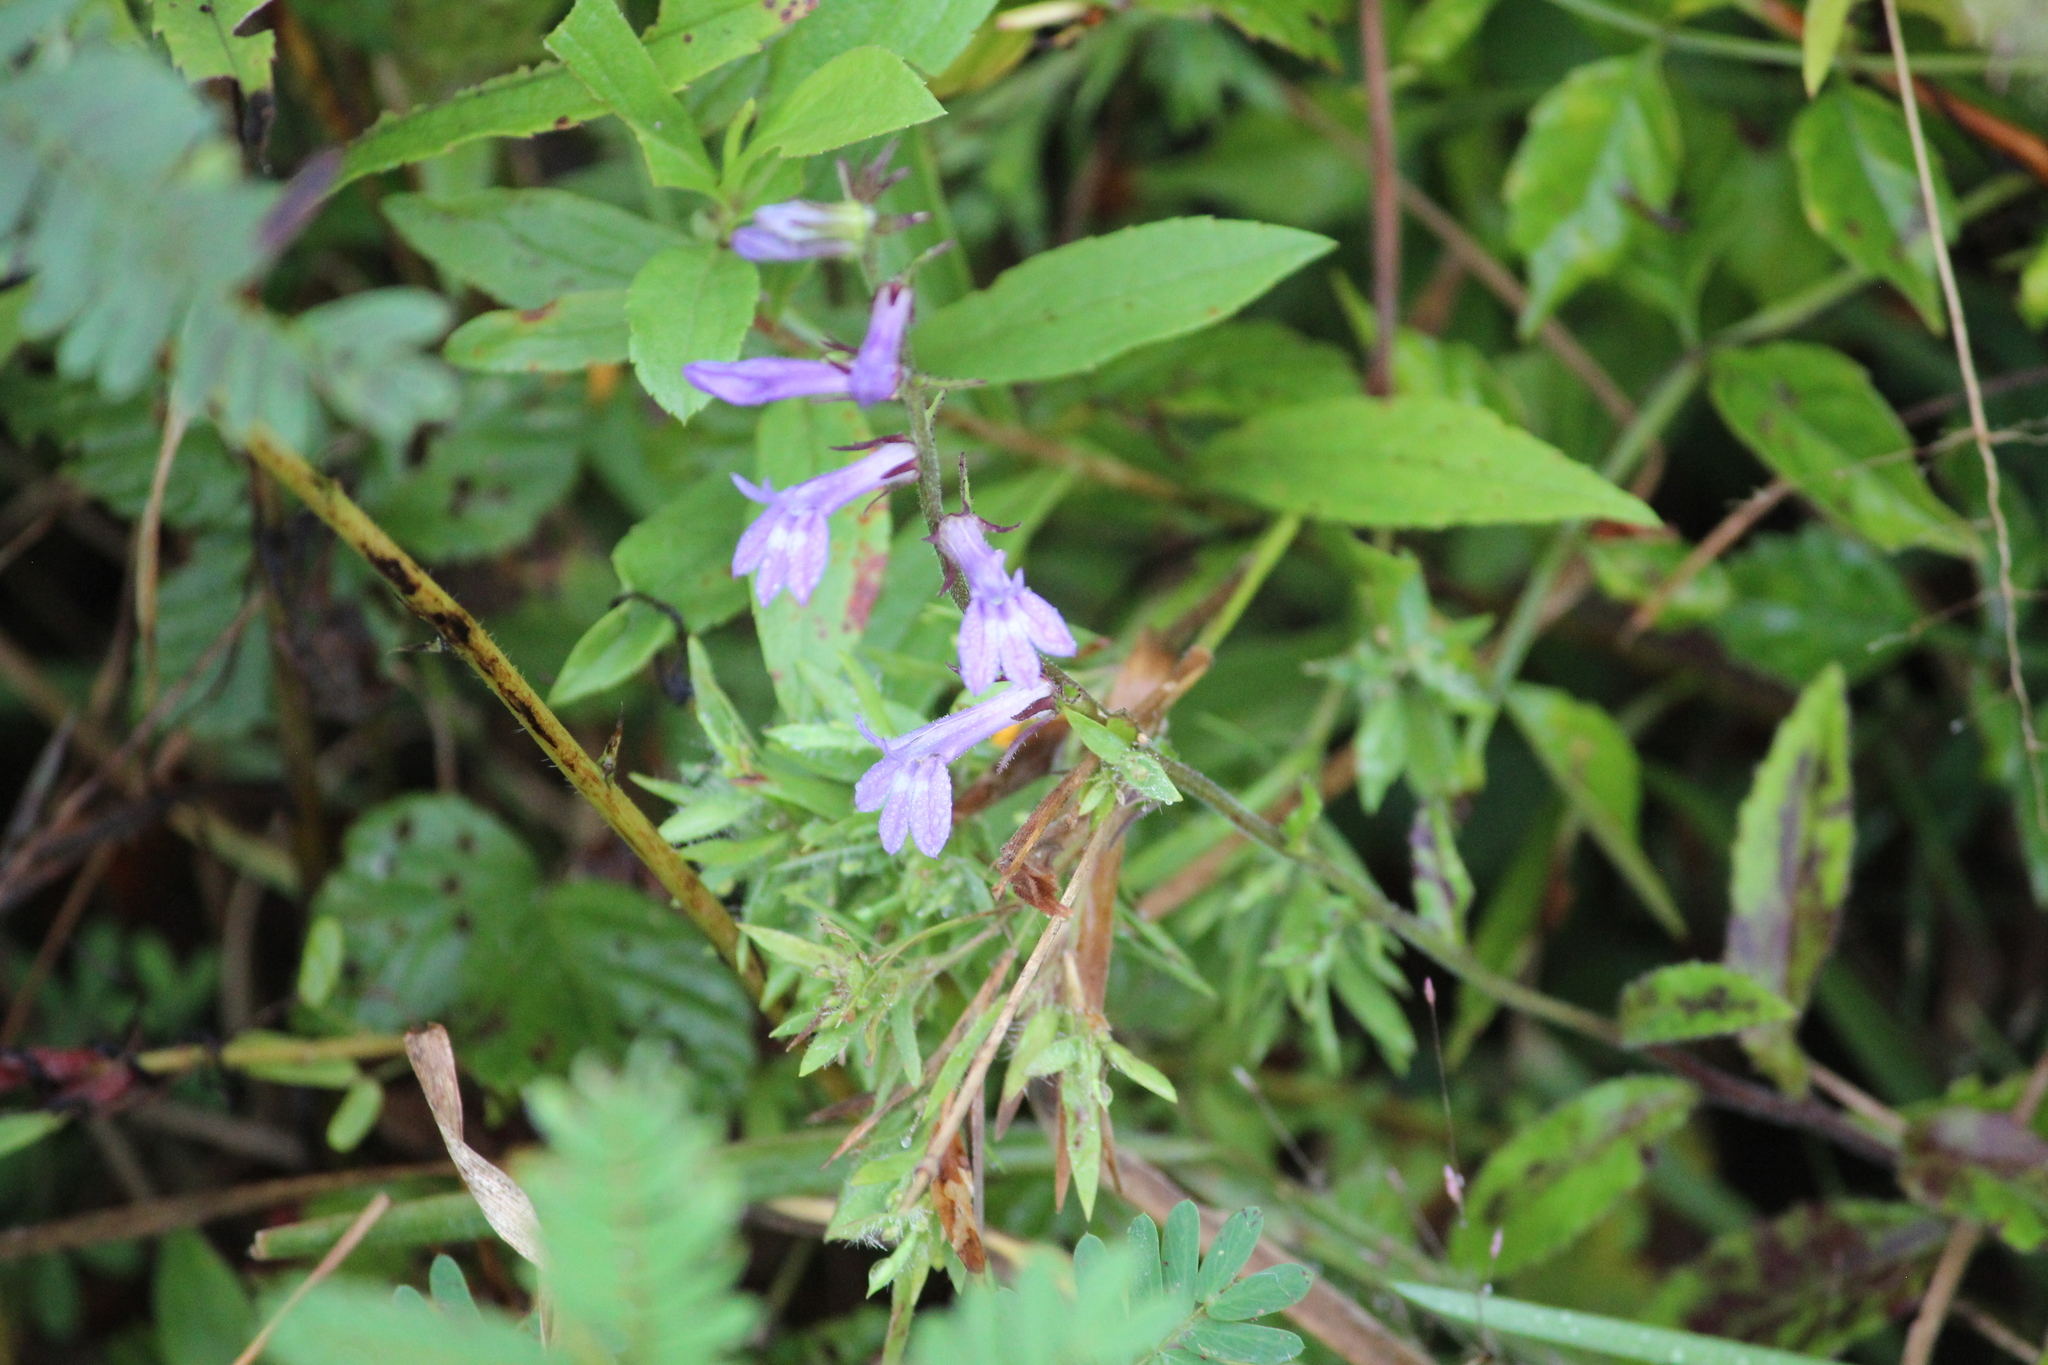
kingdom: Plantae
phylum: Tracheophyta
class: Magnoliopsida
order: Asterales
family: Campanulaceae
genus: Lobelia
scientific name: Lobelia puberula
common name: Purple dewdrop
